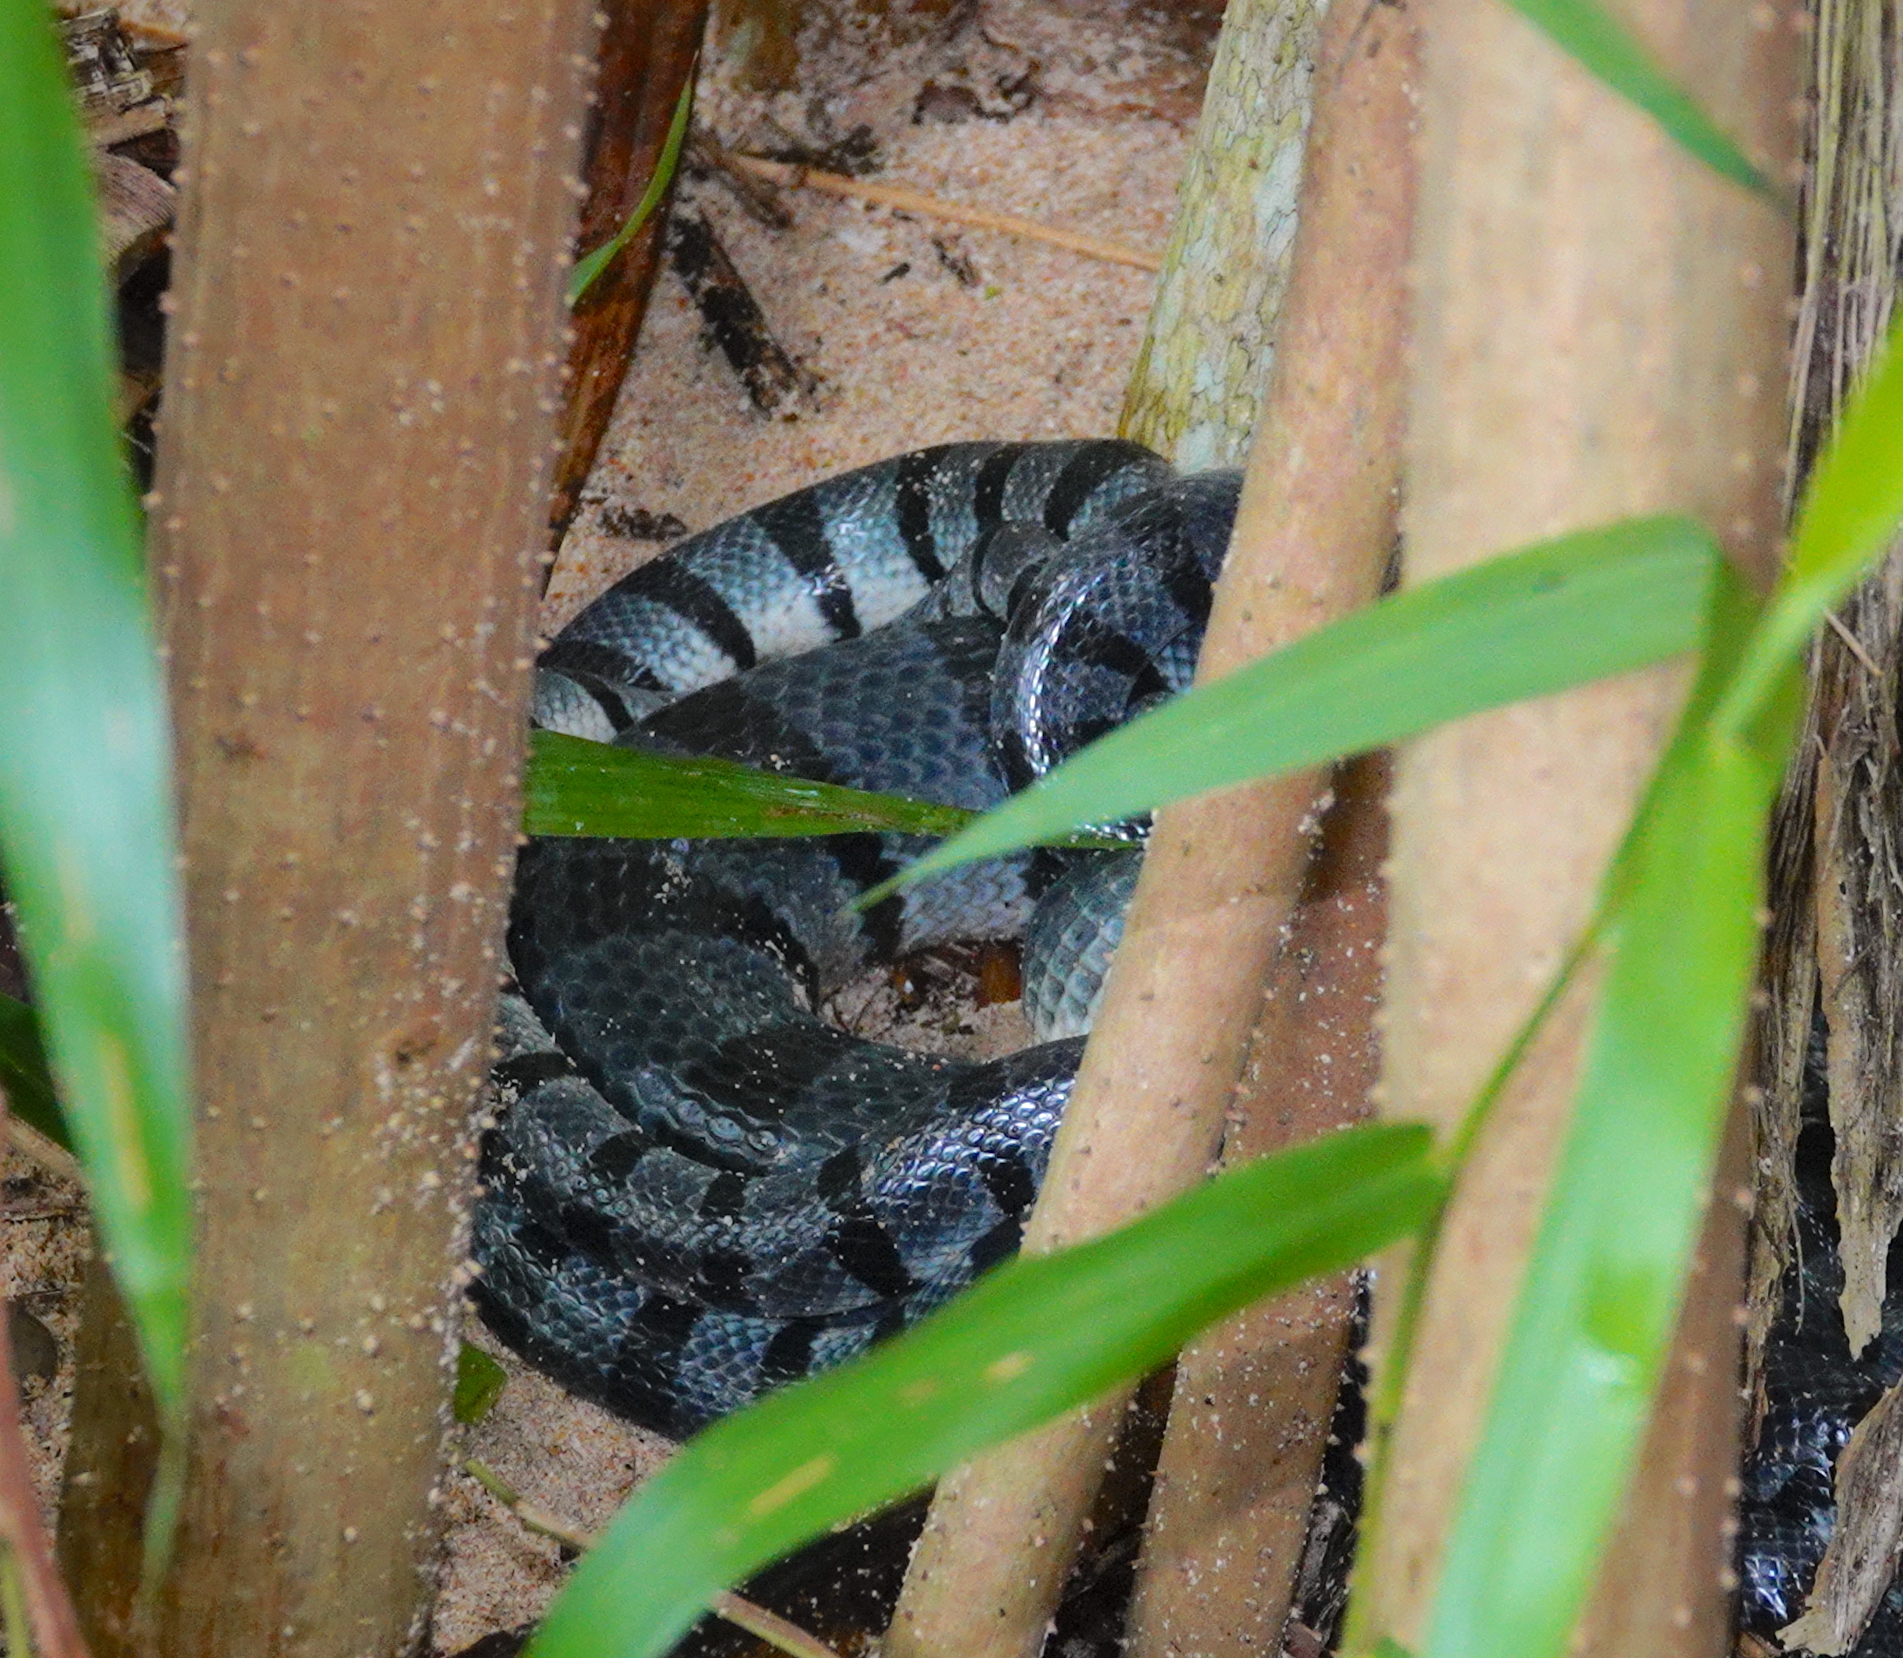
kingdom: Animalia
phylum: Chordata
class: Squamata
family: Elapidae
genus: Laticauda
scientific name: Laticauda colubrina
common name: Yellow-lipped sea krait
